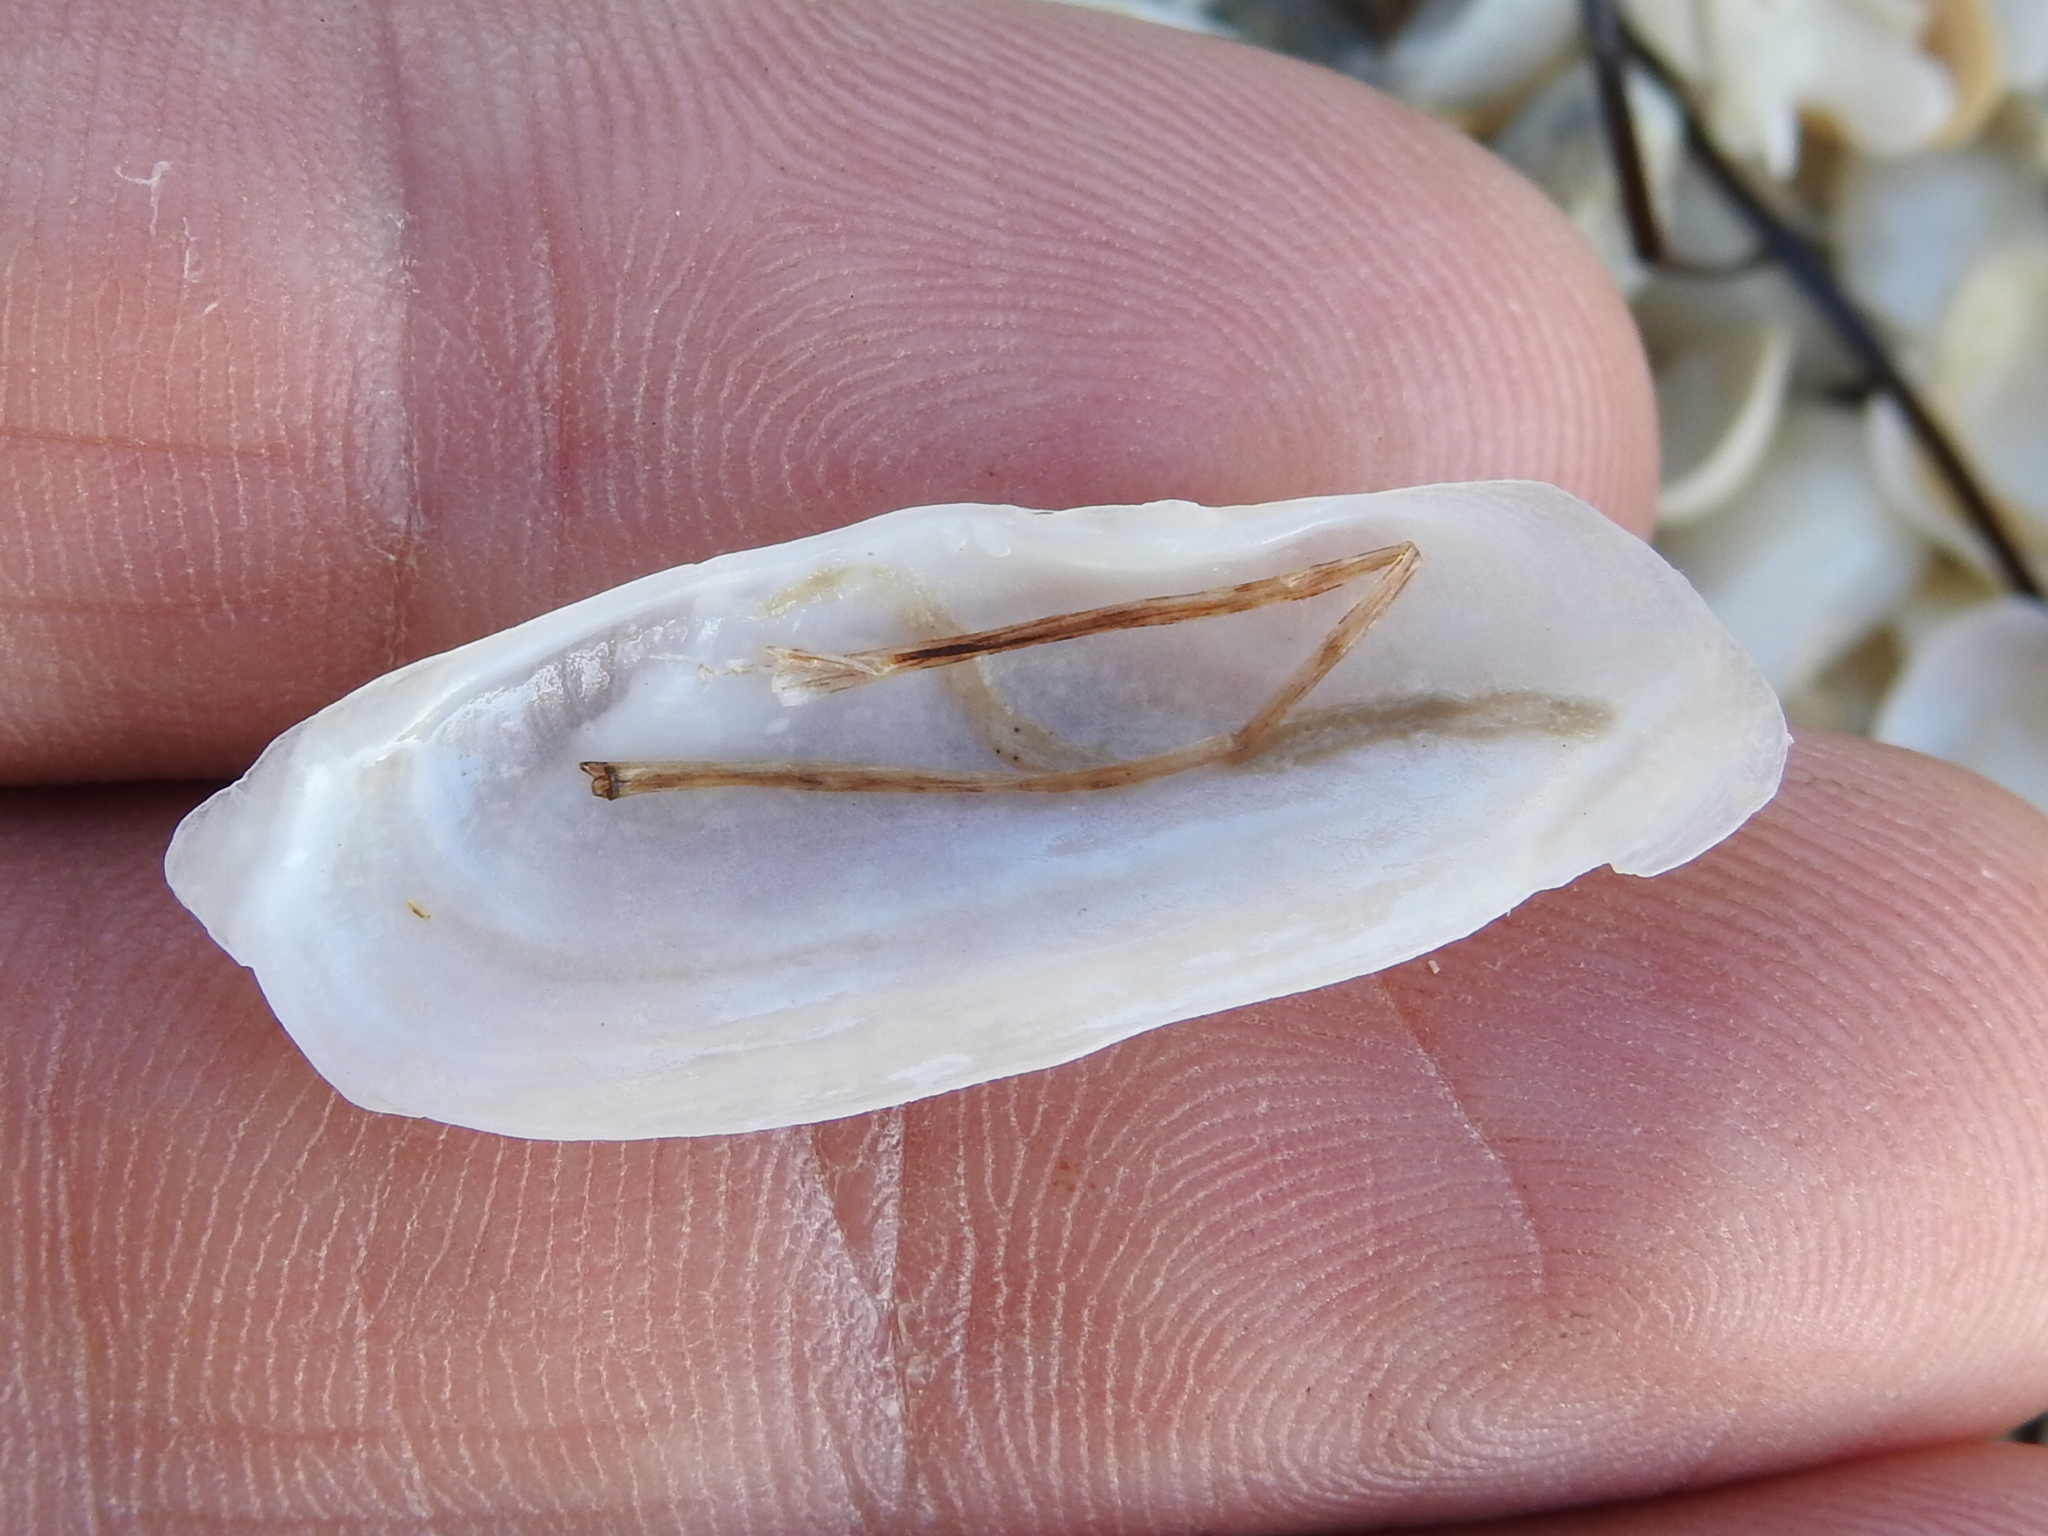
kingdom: Animalia
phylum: Mollusca
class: Bivalvia
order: Cardiida
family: Solecurtidae
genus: Tagelus
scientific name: Tagelus plebeius
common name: Stout tagelus
